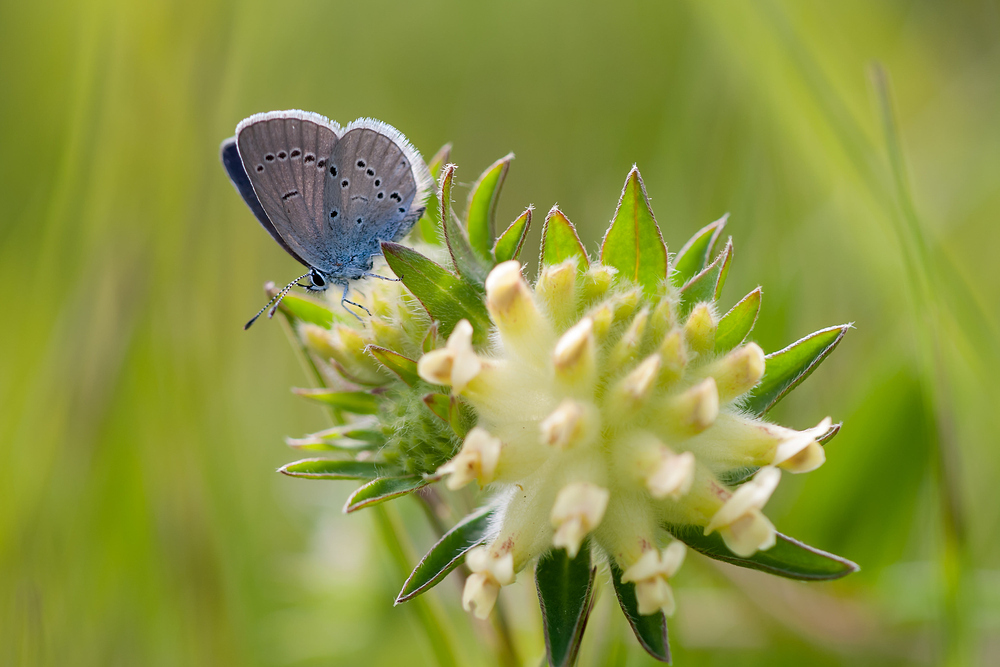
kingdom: Animalia
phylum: Arthropoda
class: Insecta
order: Lepidoptera
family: Lycaenidae
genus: Cupido
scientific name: Cupido minimus
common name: Small blue
